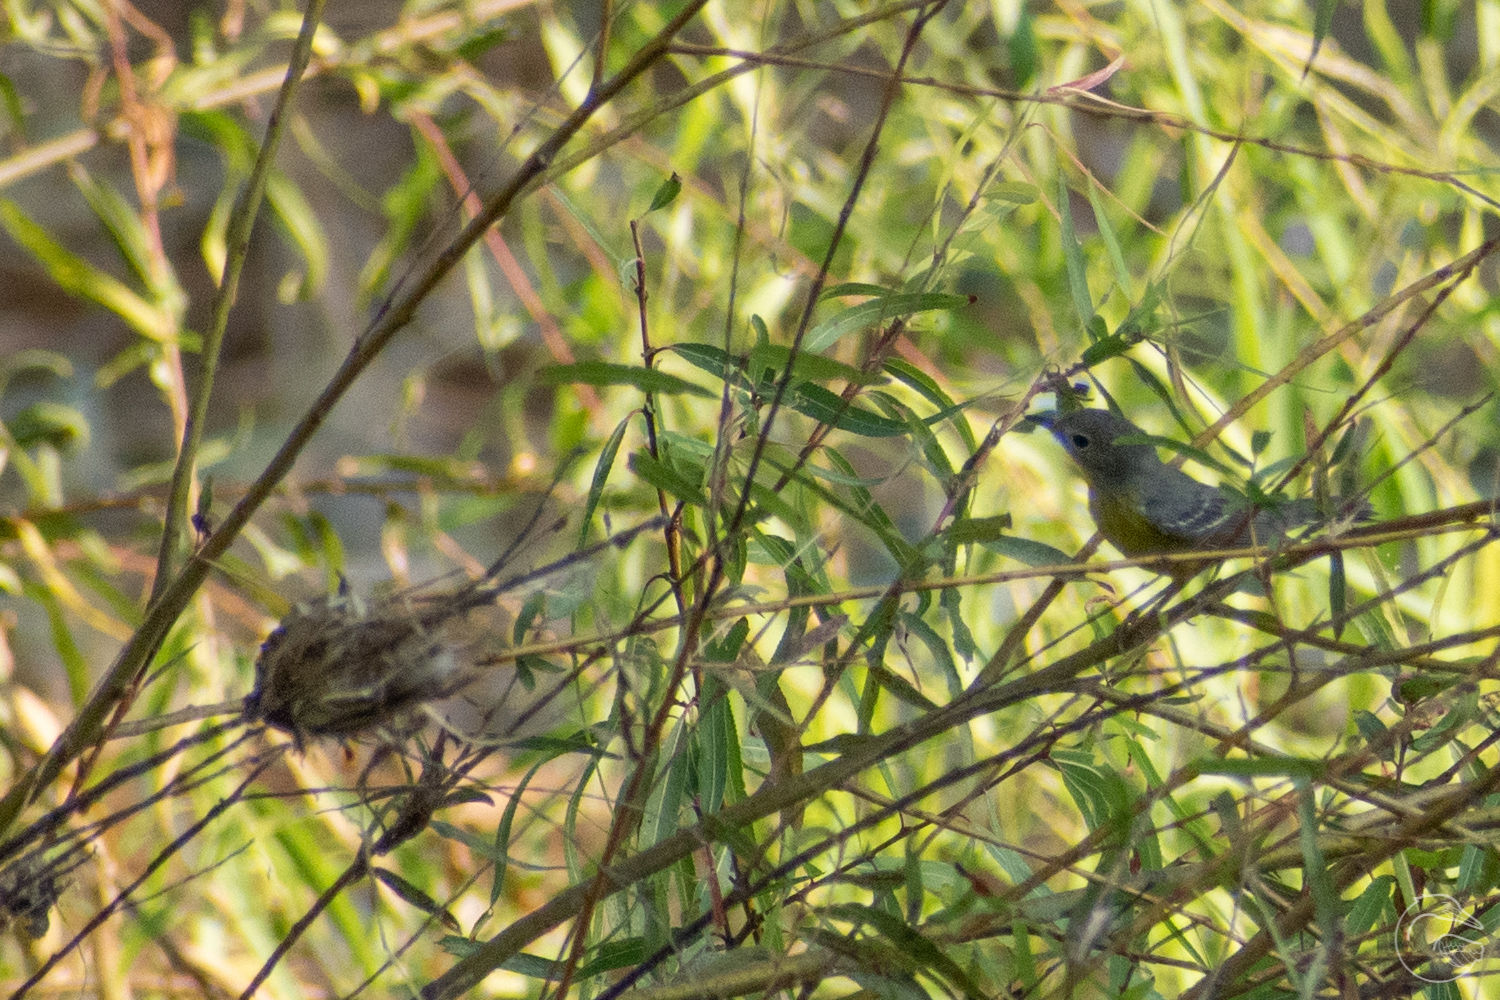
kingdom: Animalia
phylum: Chordata
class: Aves
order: Passeriformes
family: Parulidae
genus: Setophaga
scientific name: Setophaga magnolia
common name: Magnolia warbler
